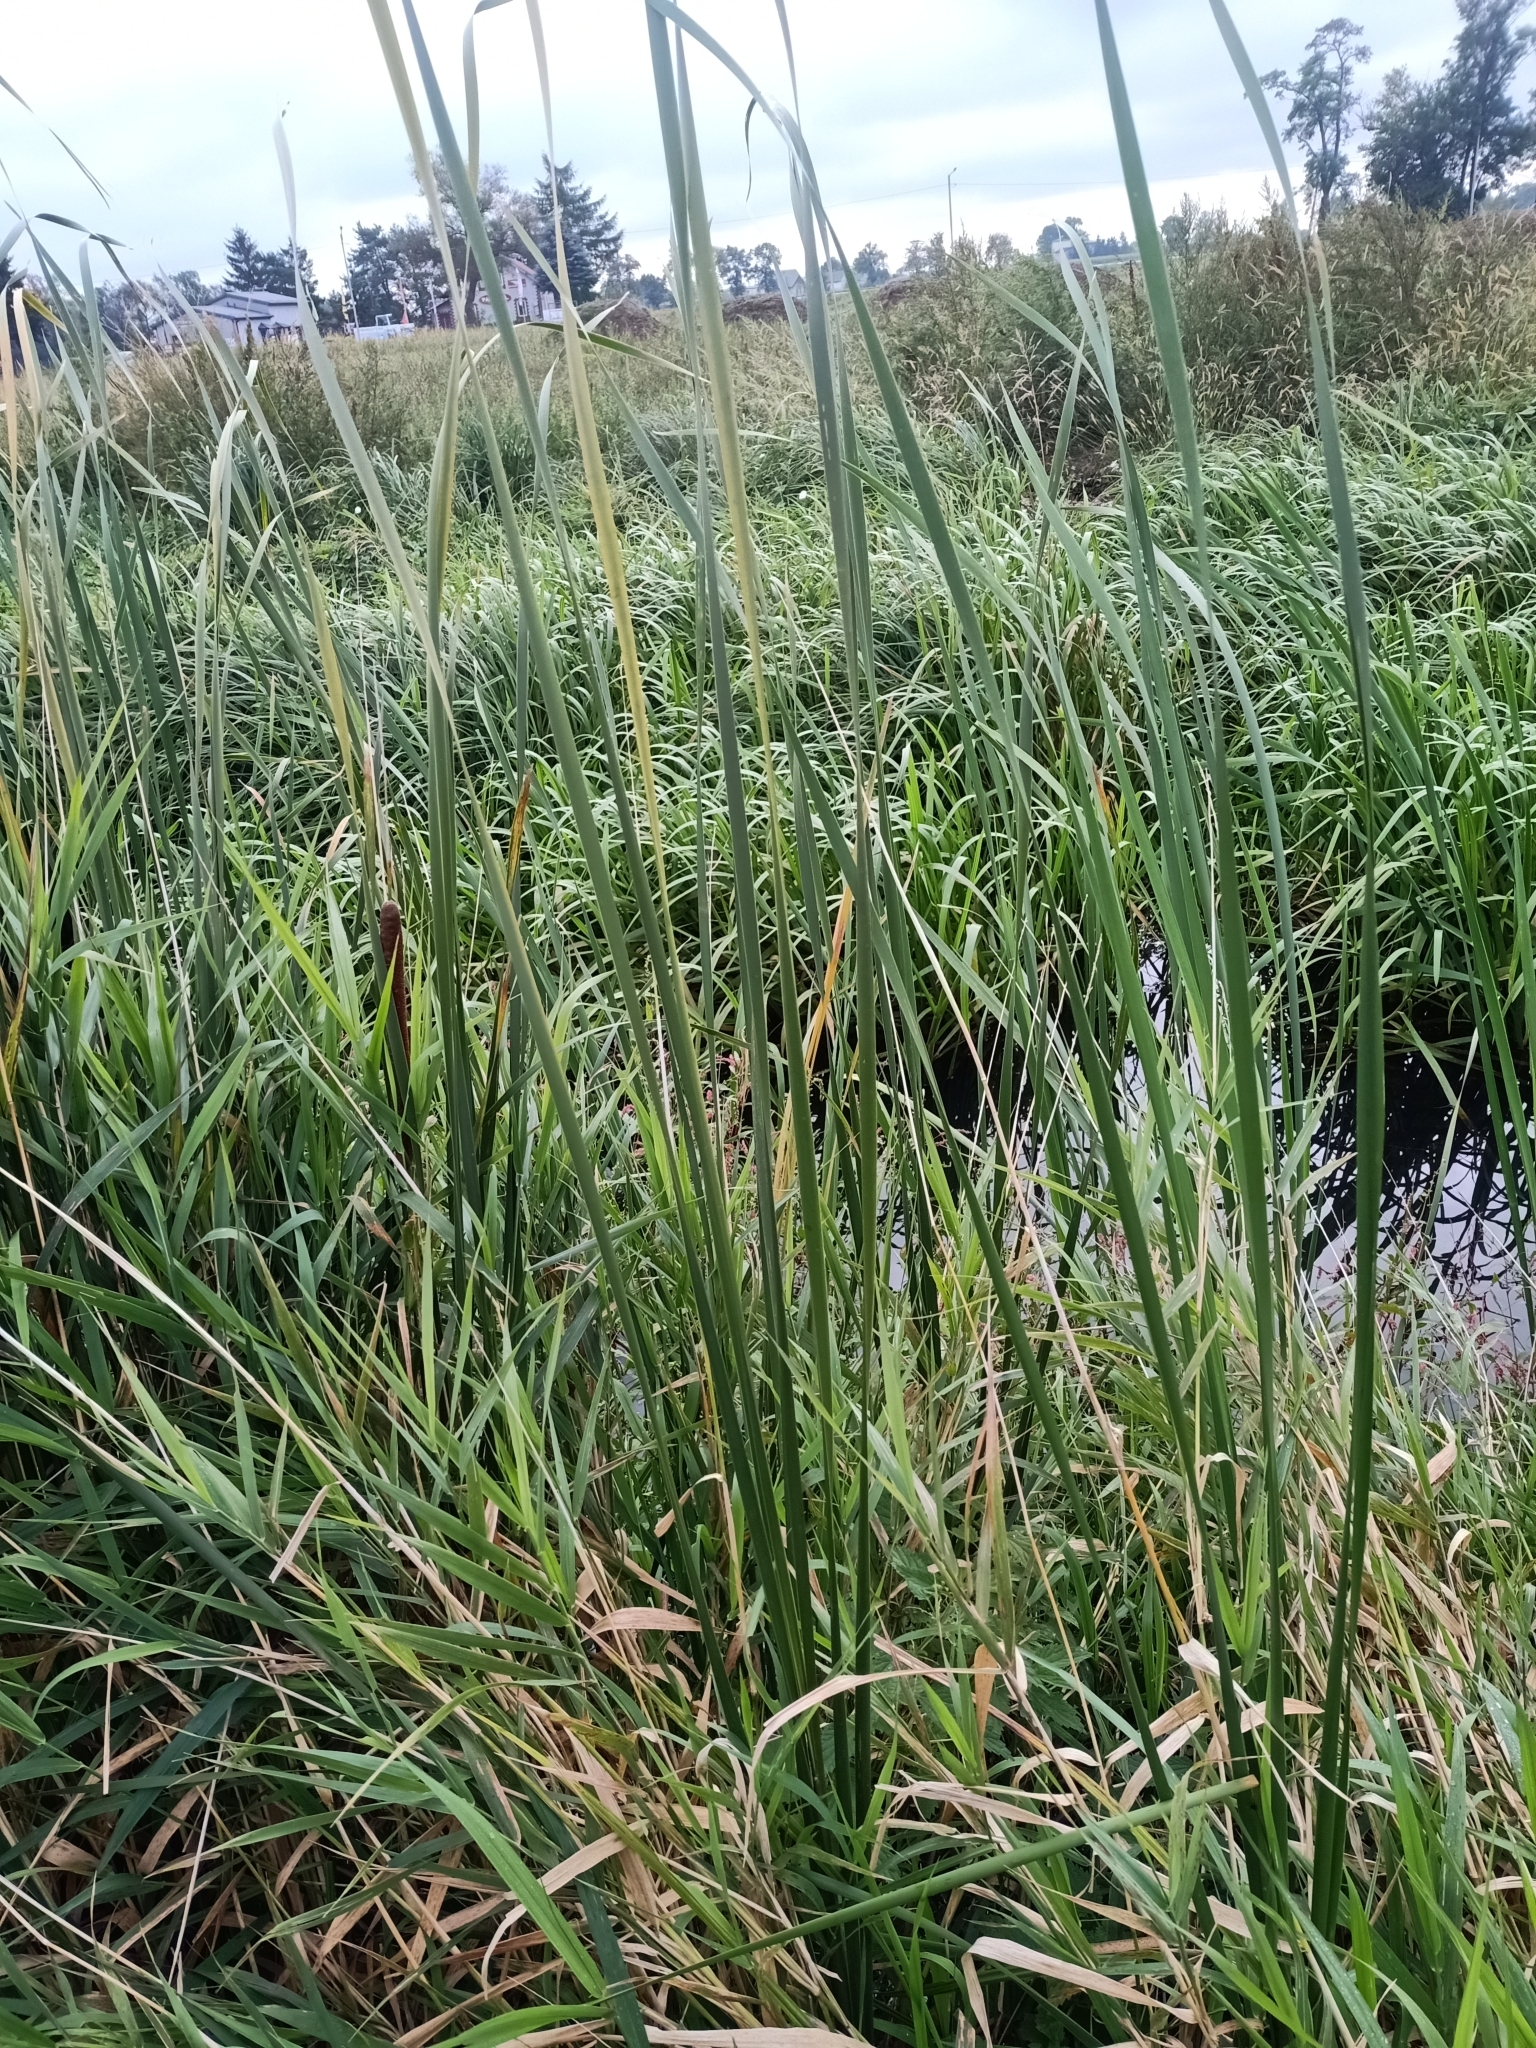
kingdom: Plantae
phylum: Tracheophyta
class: Liliopsida
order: Poales
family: Typhaceae
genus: Typha
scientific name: Typha angustifolia
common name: Lesser bulrush
